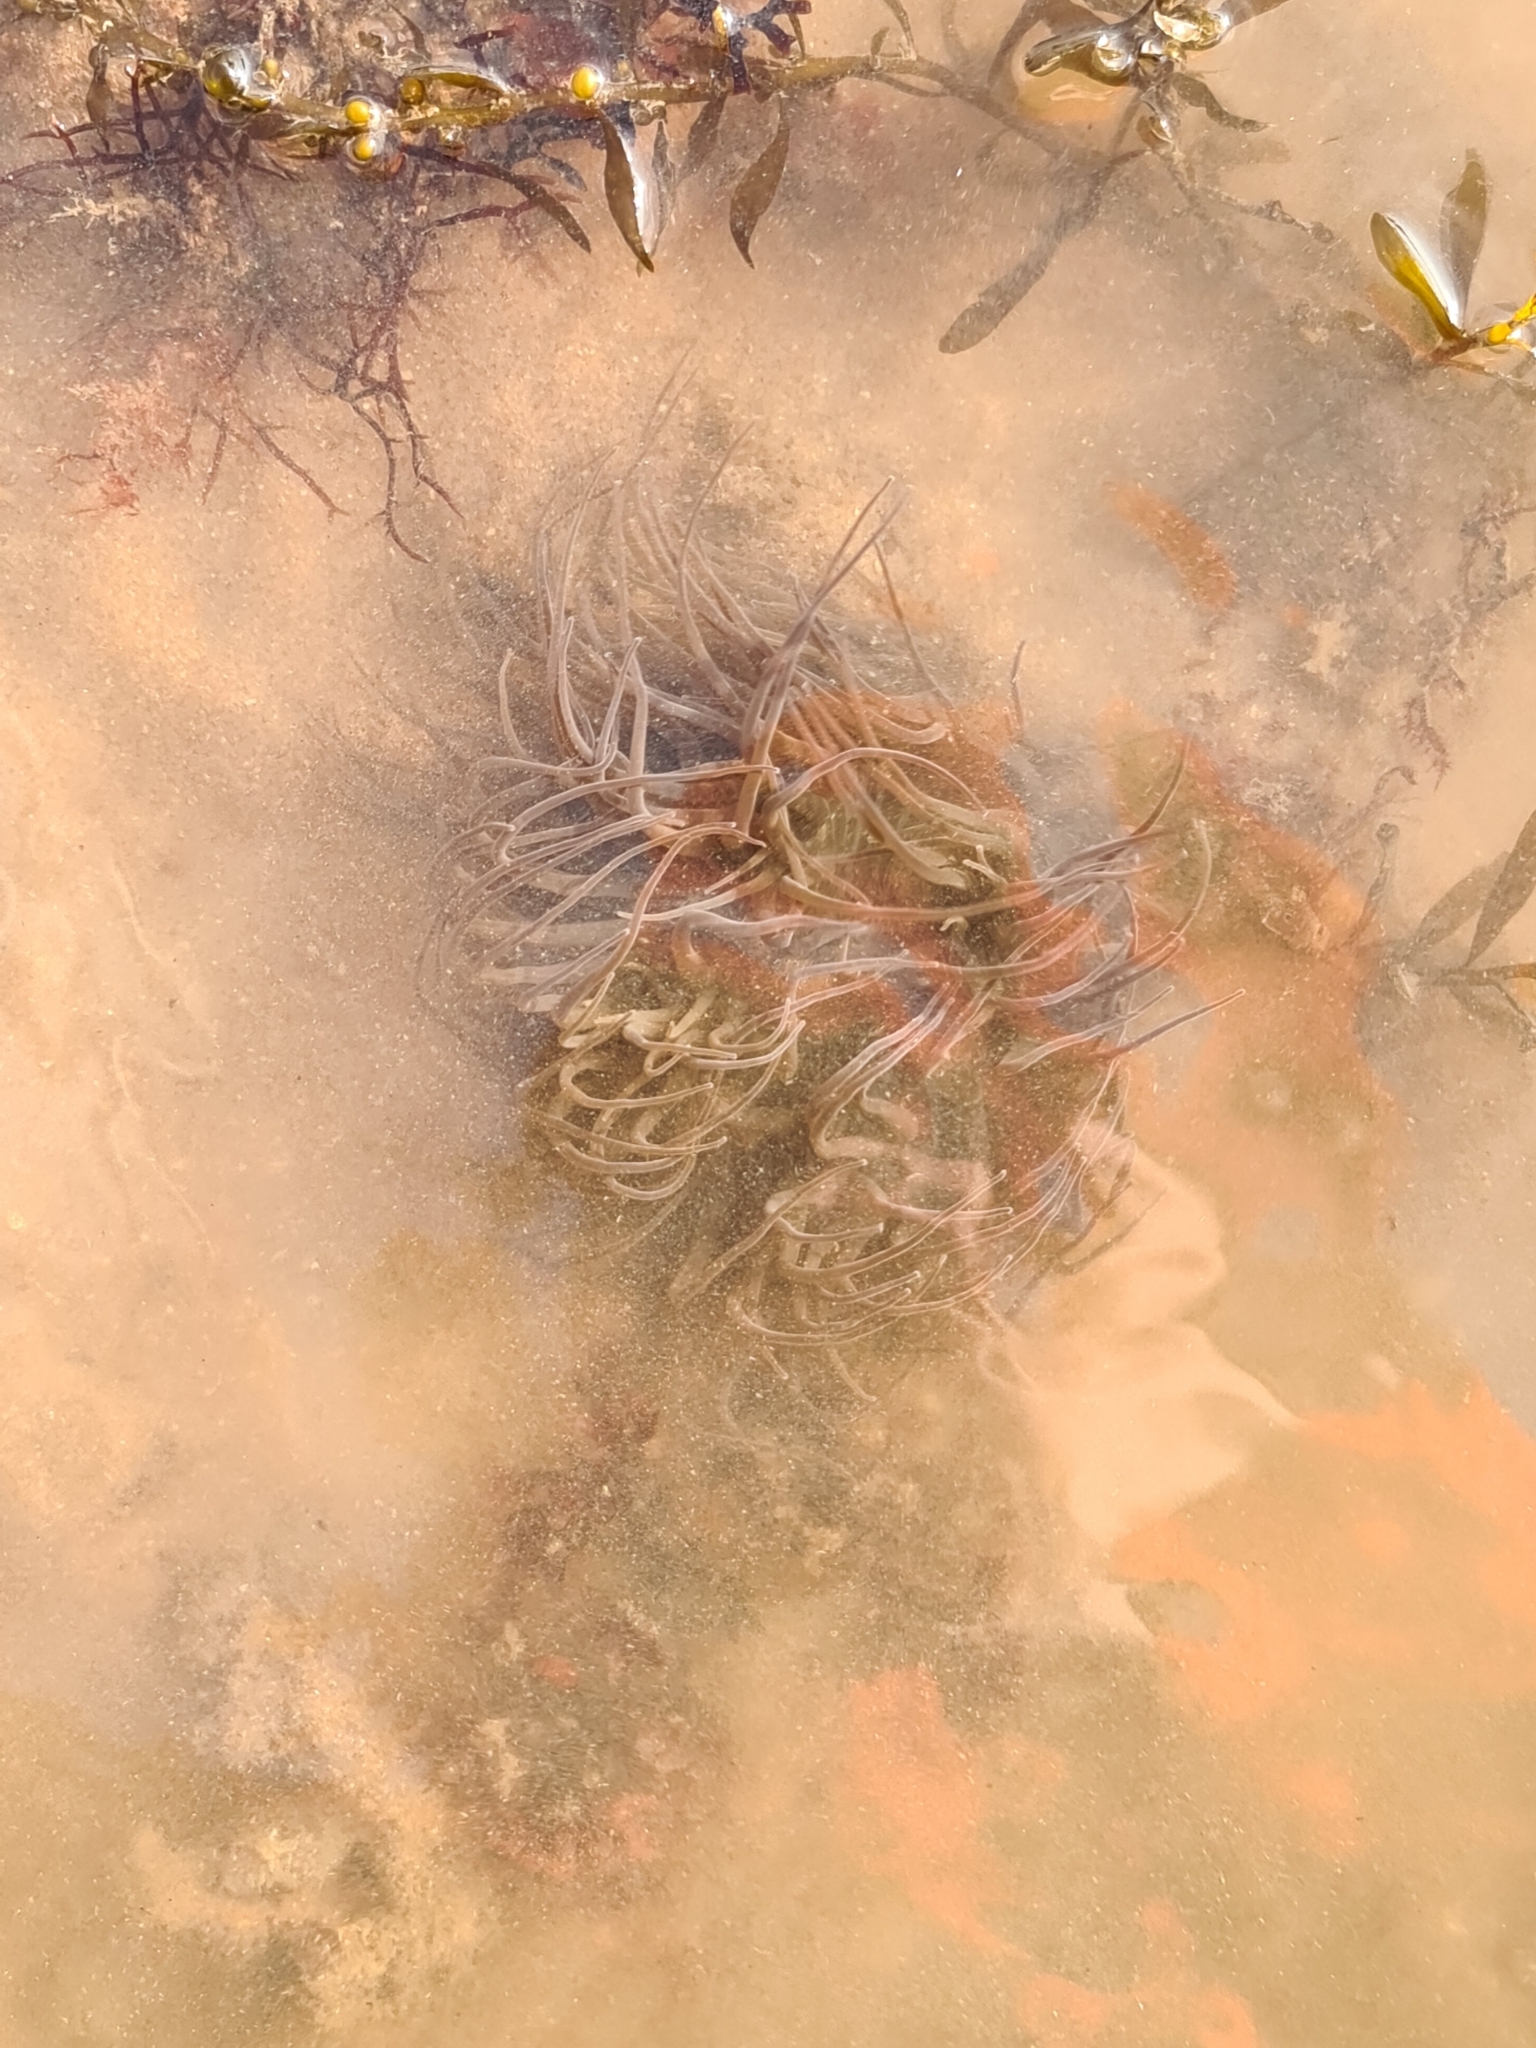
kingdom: Animalia
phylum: Cnidaria
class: Anthozoa
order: Actiniaria
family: Actiniidae
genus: Anemonia
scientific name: Anemonia viridis
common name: Snakelocks anemone
